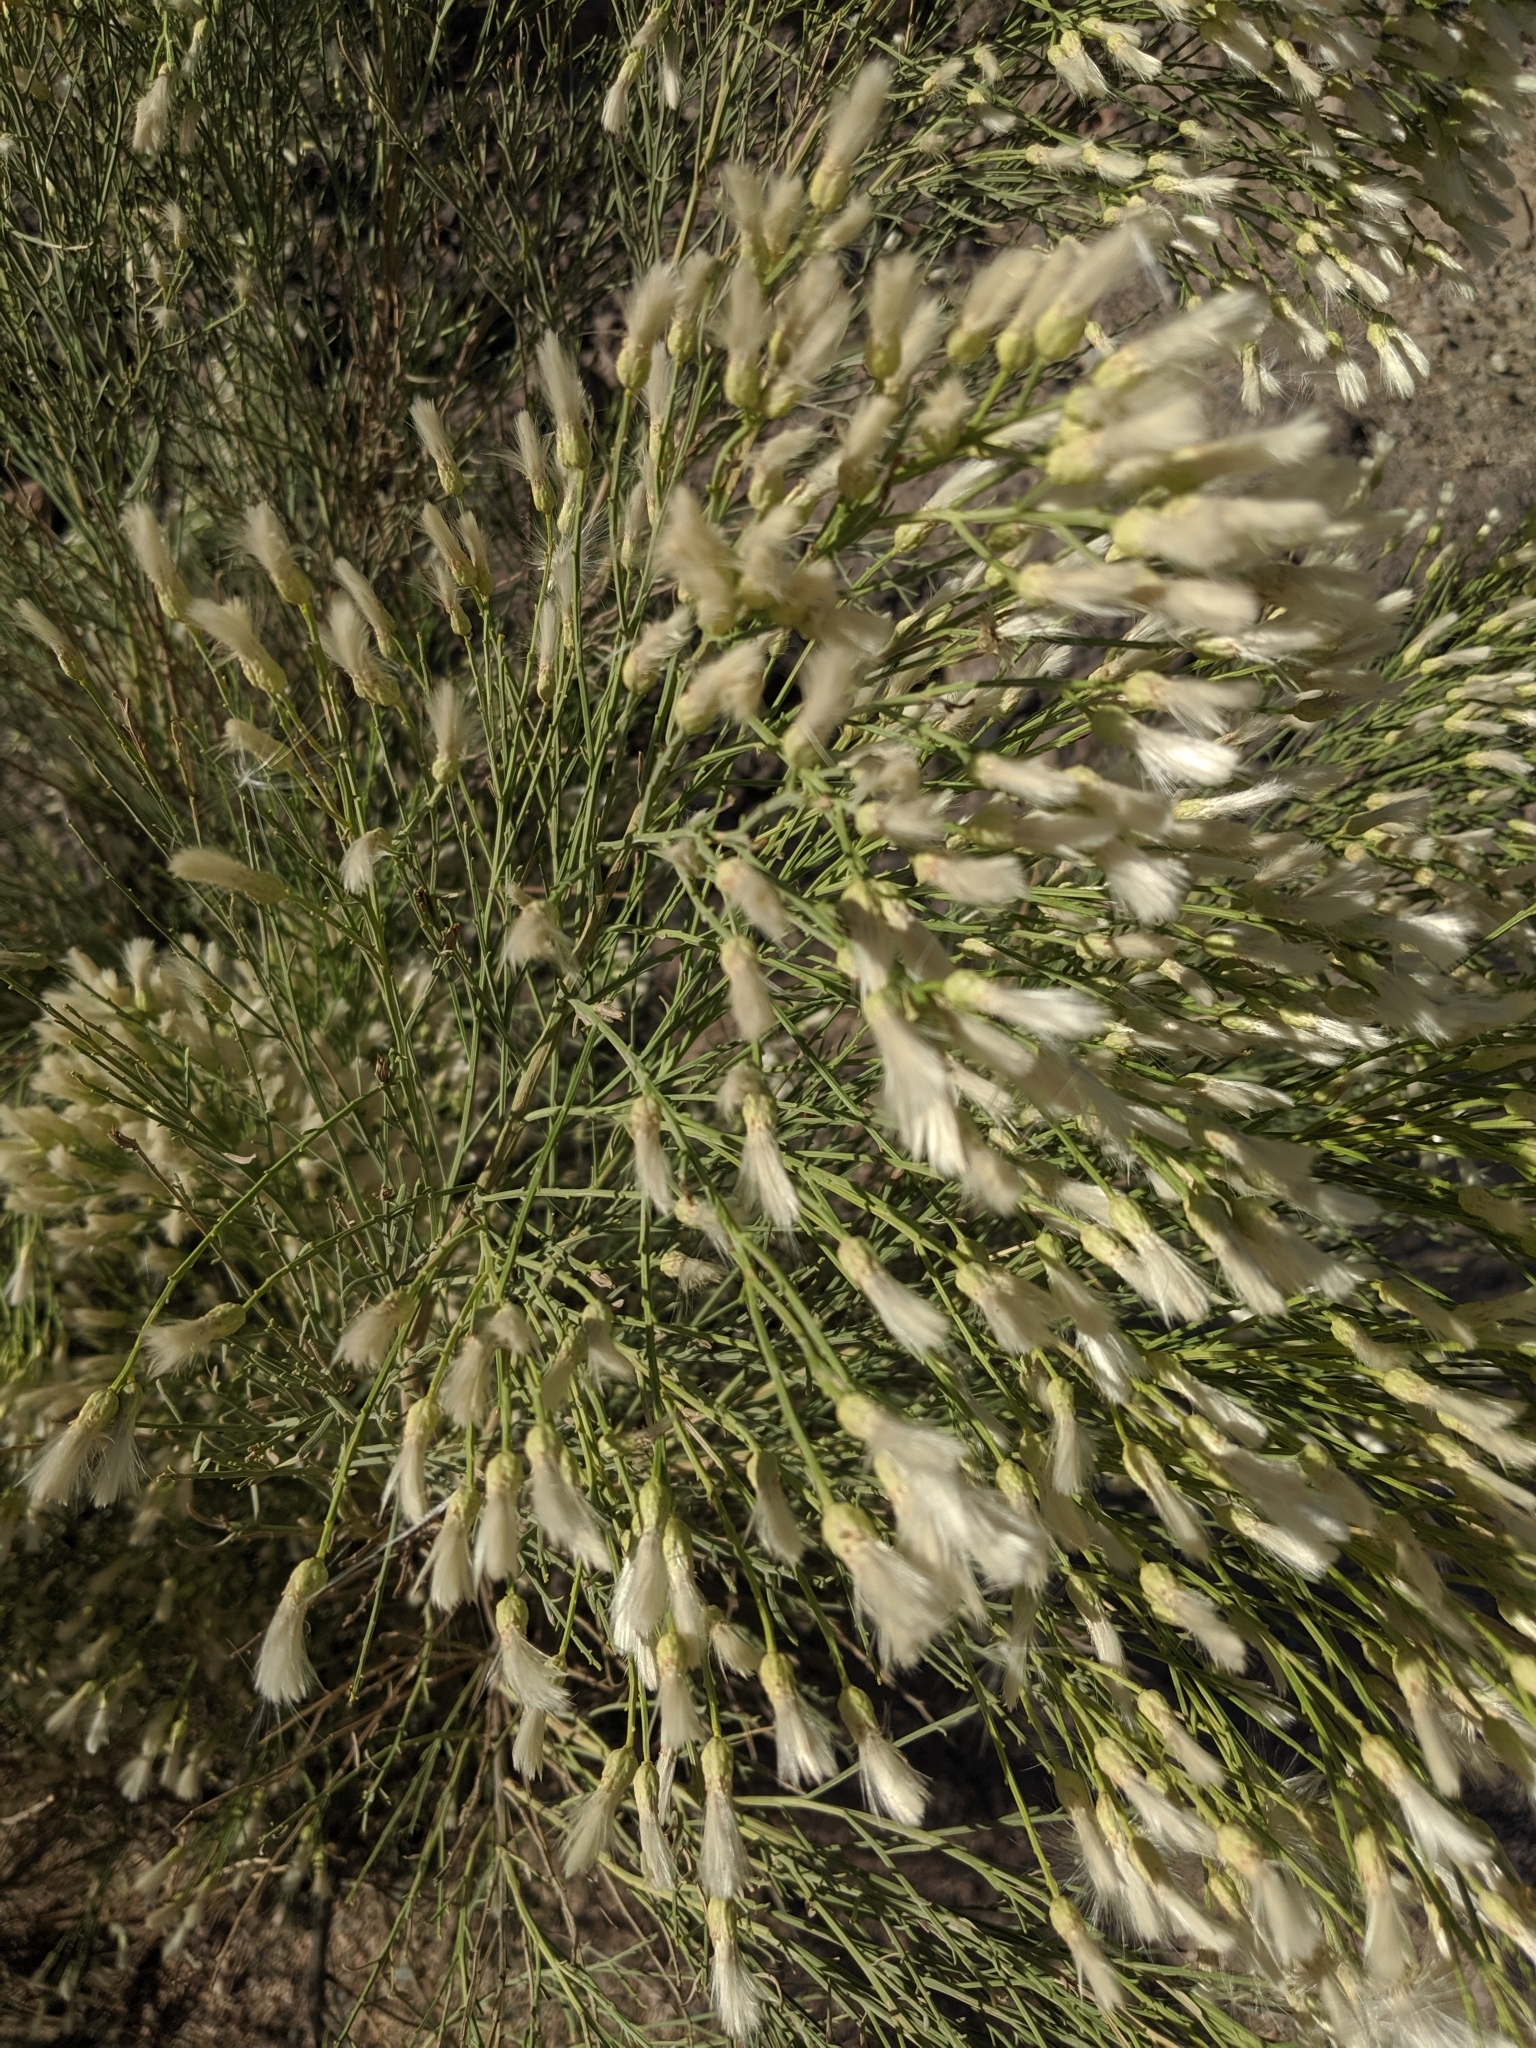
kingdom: Plantae
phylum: Tracheophyta
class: Magnoliopsida
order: Asterales
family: Asteraceae
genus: Baccharis
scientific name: Baccharis sarothroides
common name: Desert-broom
